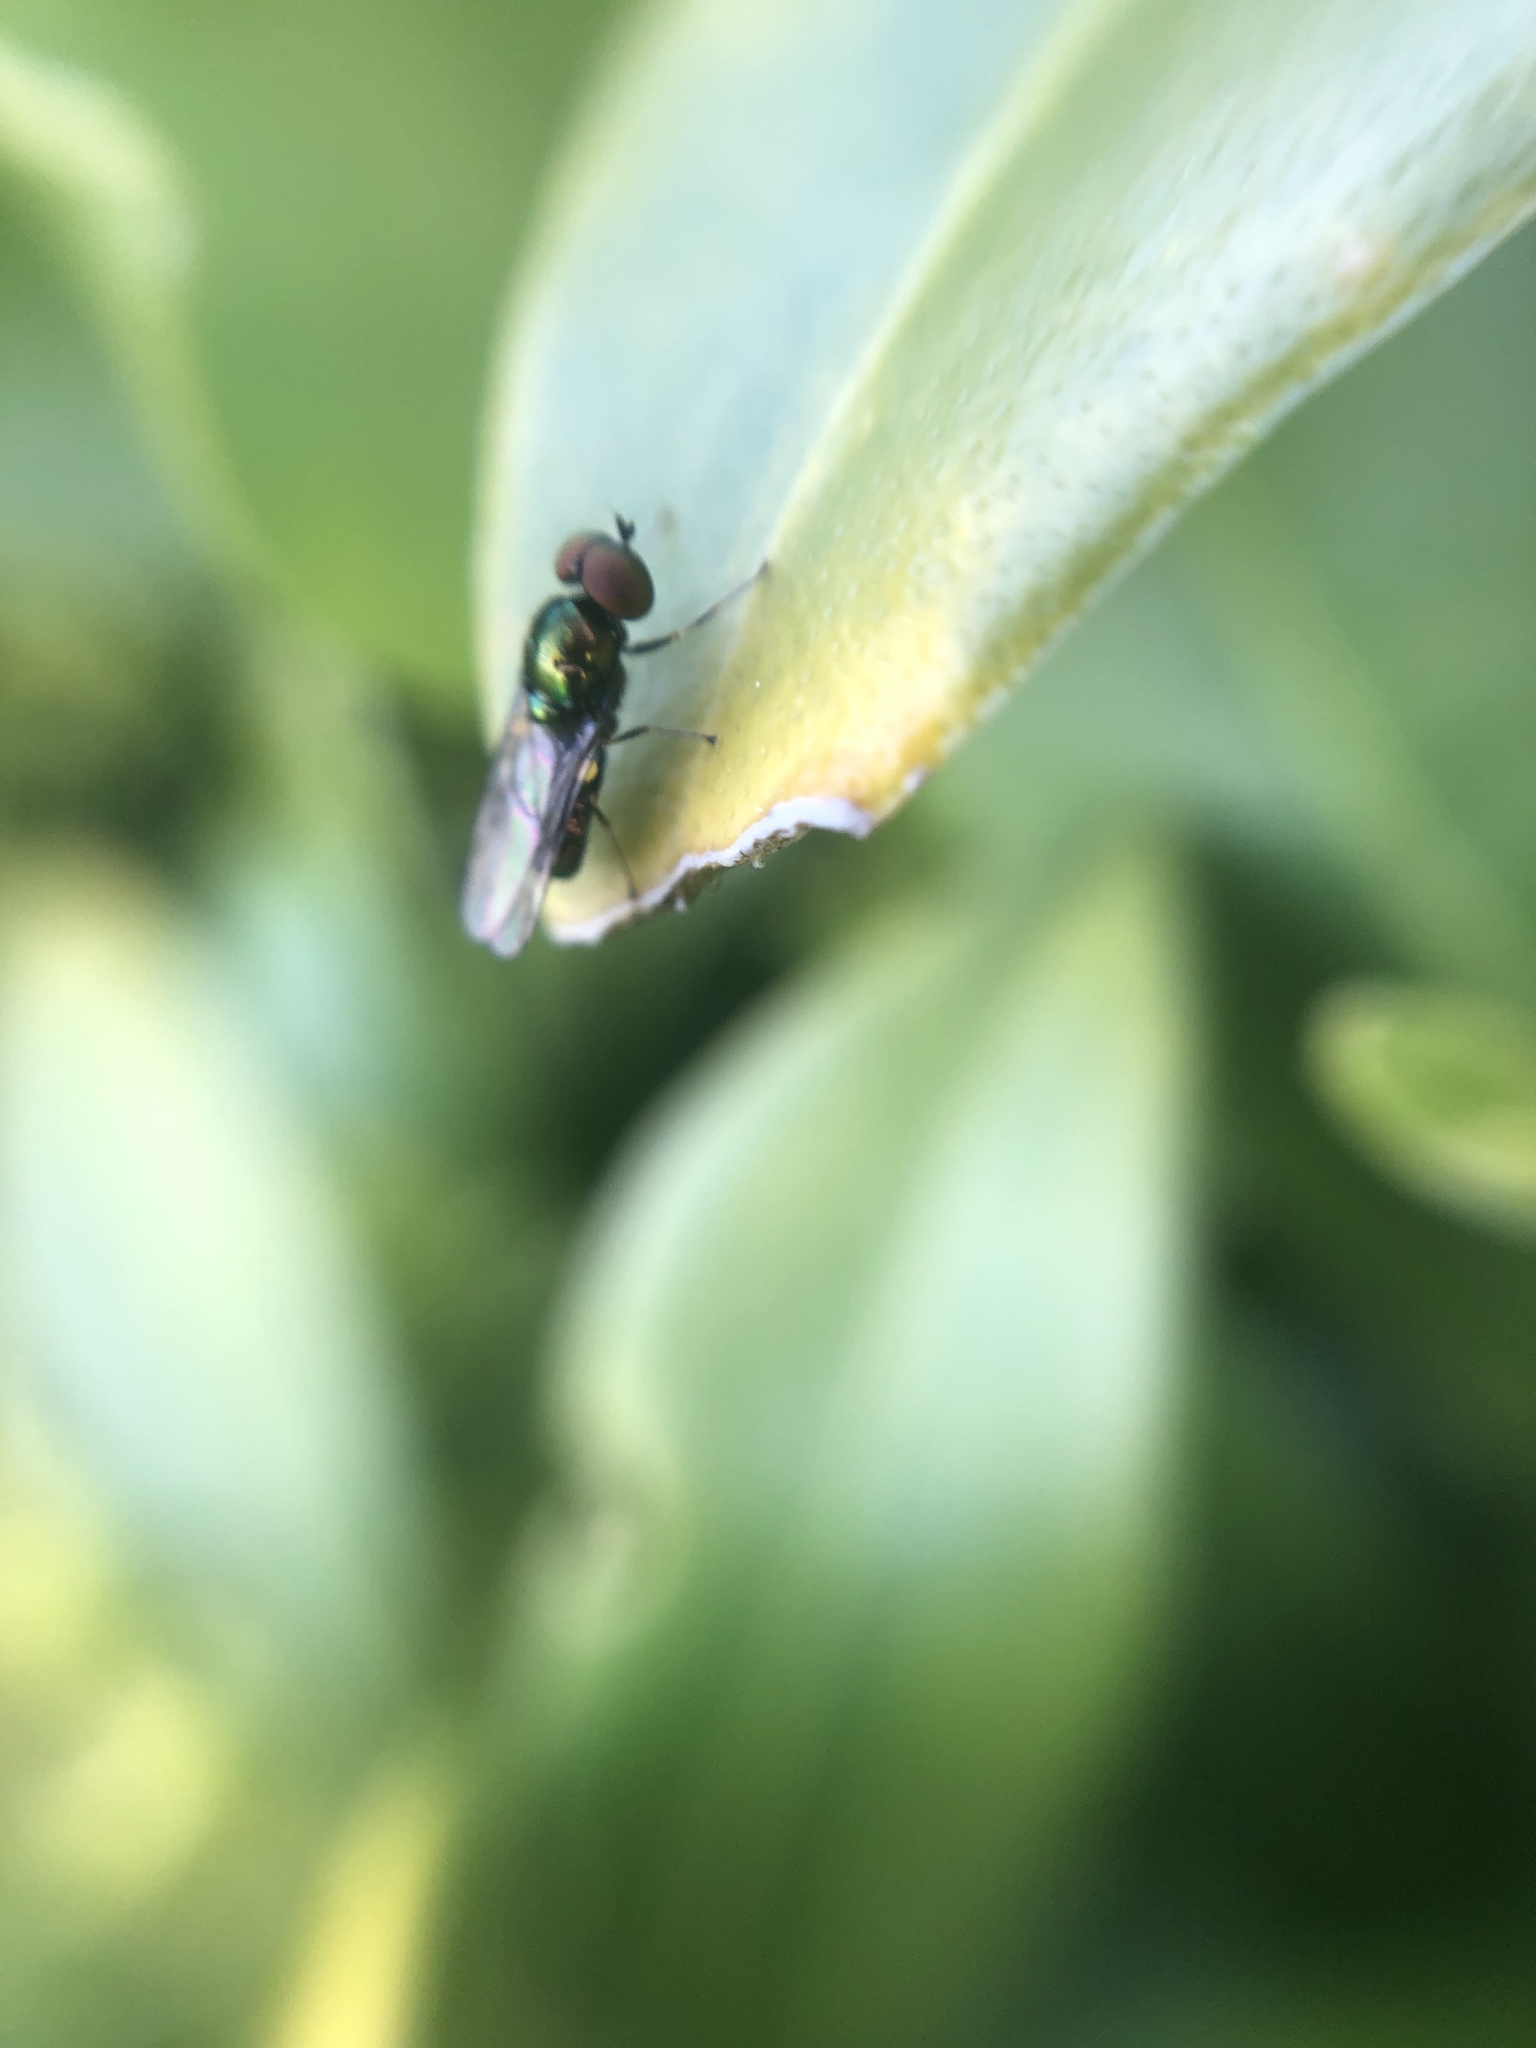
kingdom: Animalia
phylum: Arthropoda
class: Insecta
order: Diptera
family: Stratiomyidae
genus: Microchrysa
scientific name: Microchrysa polita
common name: Black-horned gem
